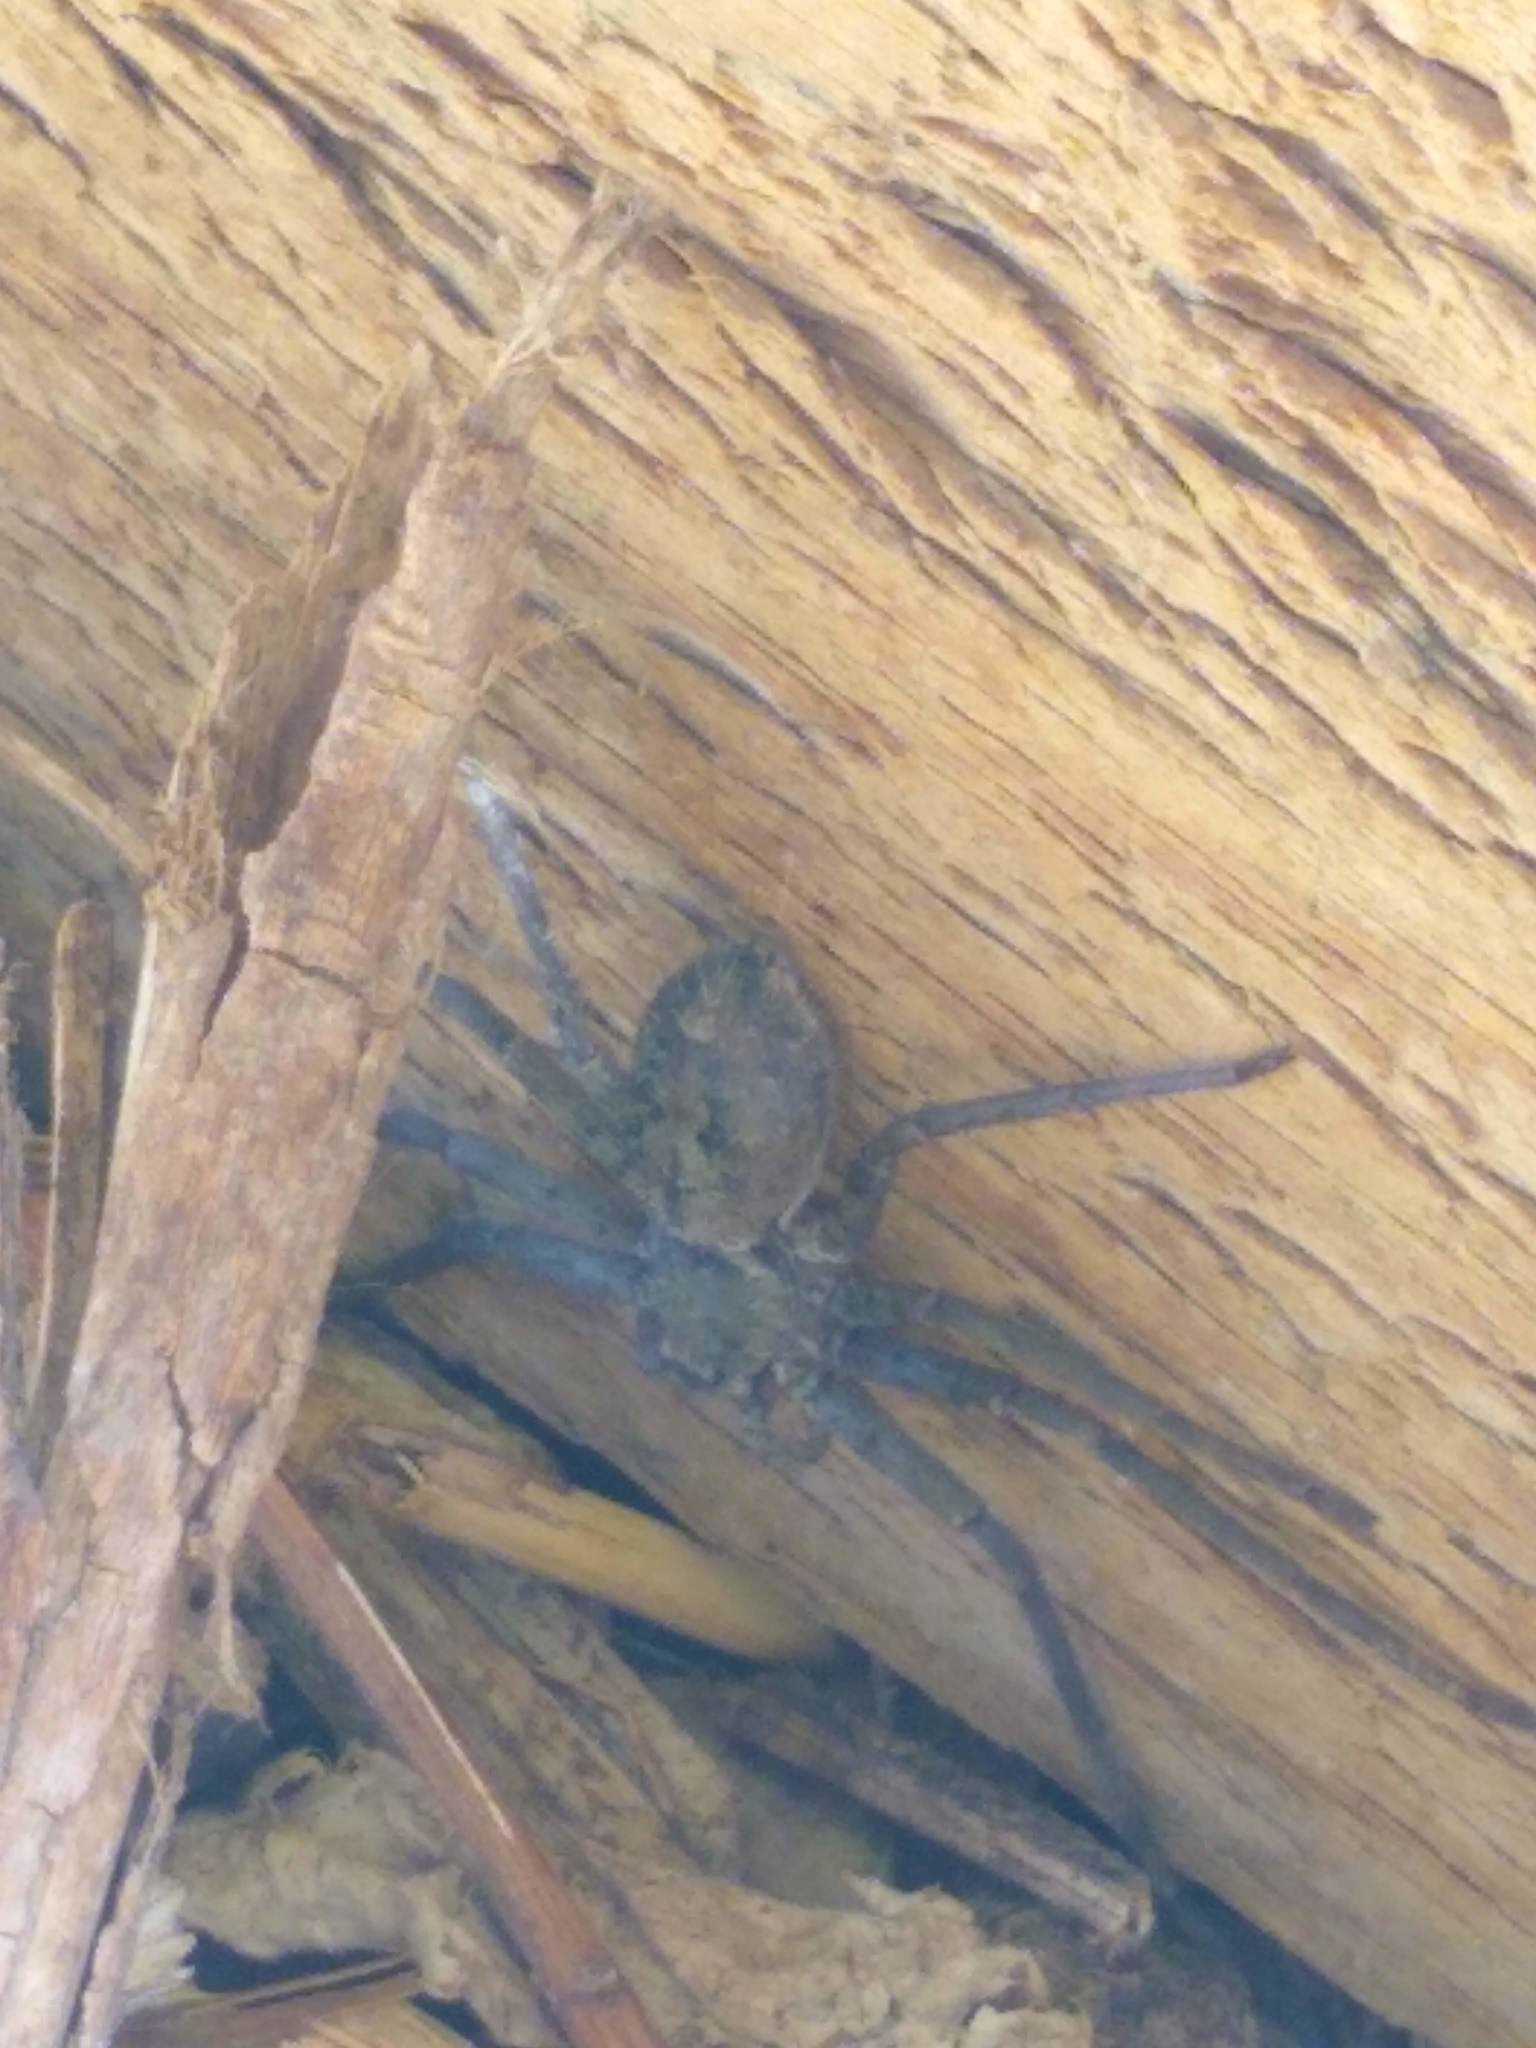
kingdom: Animalia
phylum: Arthropoda
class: Arachnida
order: Araneae
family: Sparassidae
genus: Heteropoda
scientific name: Heteropoda venatoria
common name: Huntsman spider
